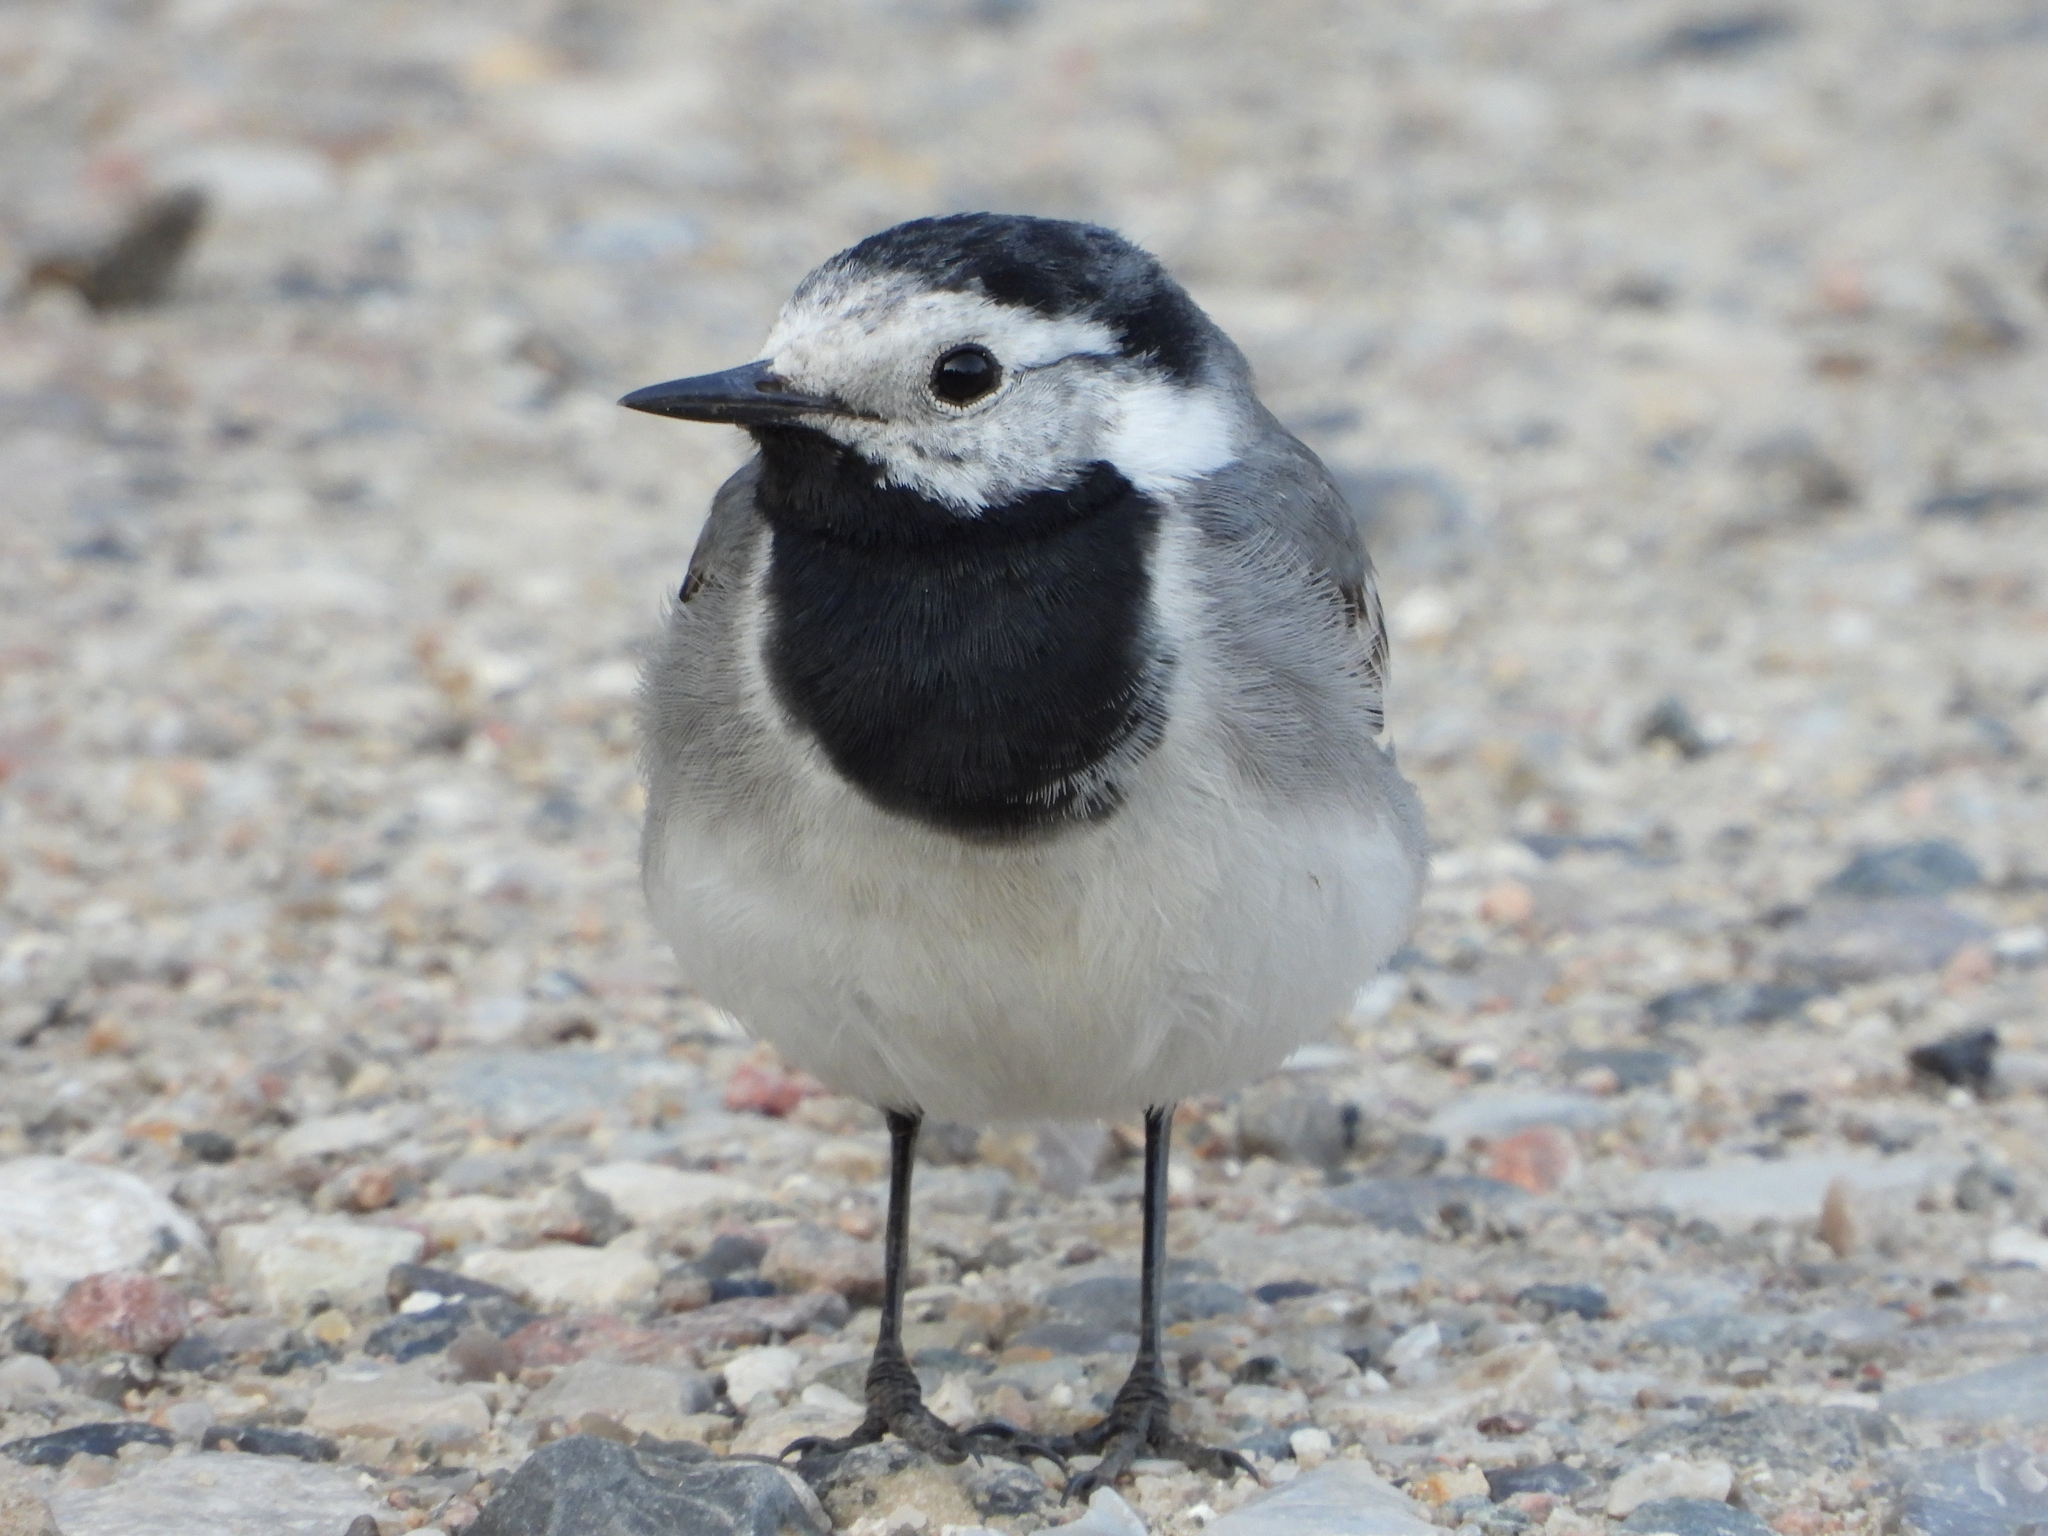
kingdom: Animalia
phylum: Chordata
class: Aves
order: Passeriformes
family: Motacillidae
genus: Motacilla
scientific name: Motacilla alba
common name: White wagtail
